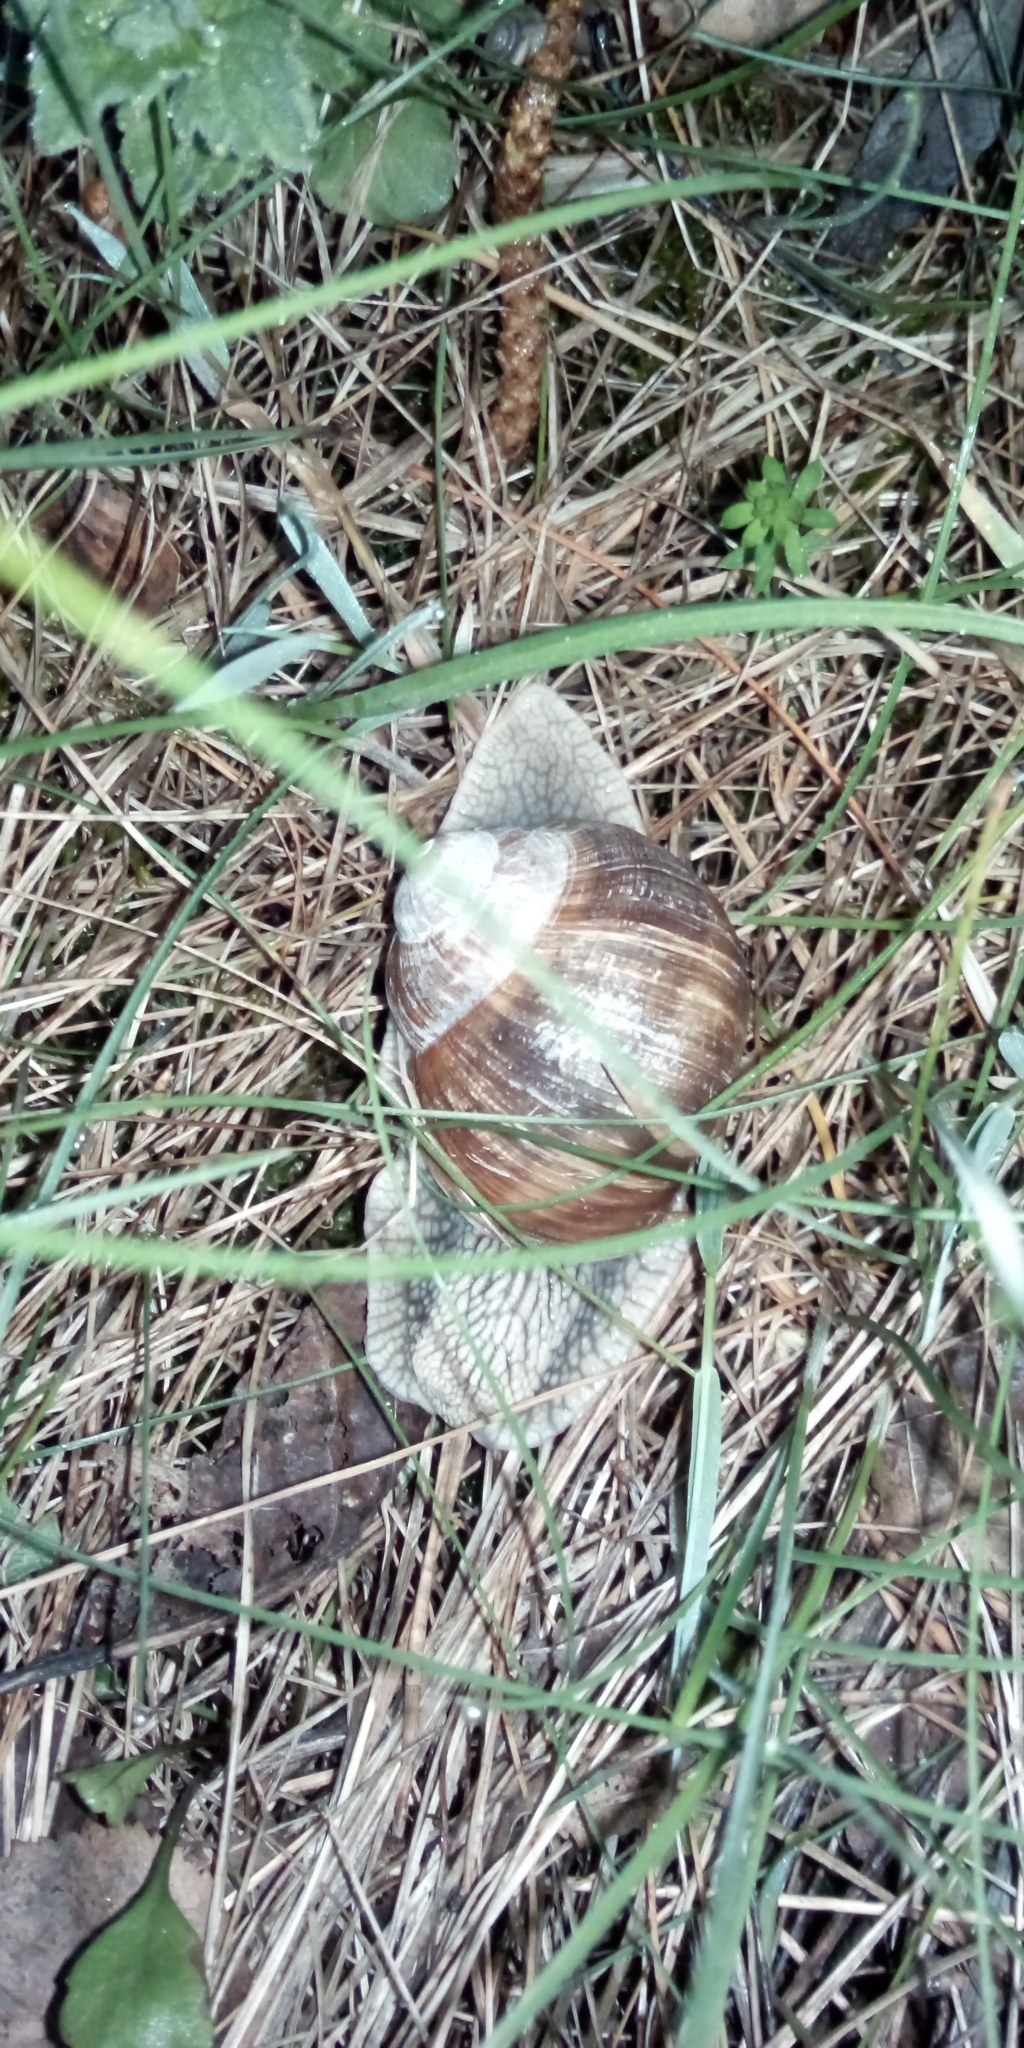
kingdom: Animalia
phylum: Mollusca
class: Gastropoda
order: Stylommatophora
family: Helicidae
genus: Helix
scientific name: Helix pomatia
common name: Roman snail
